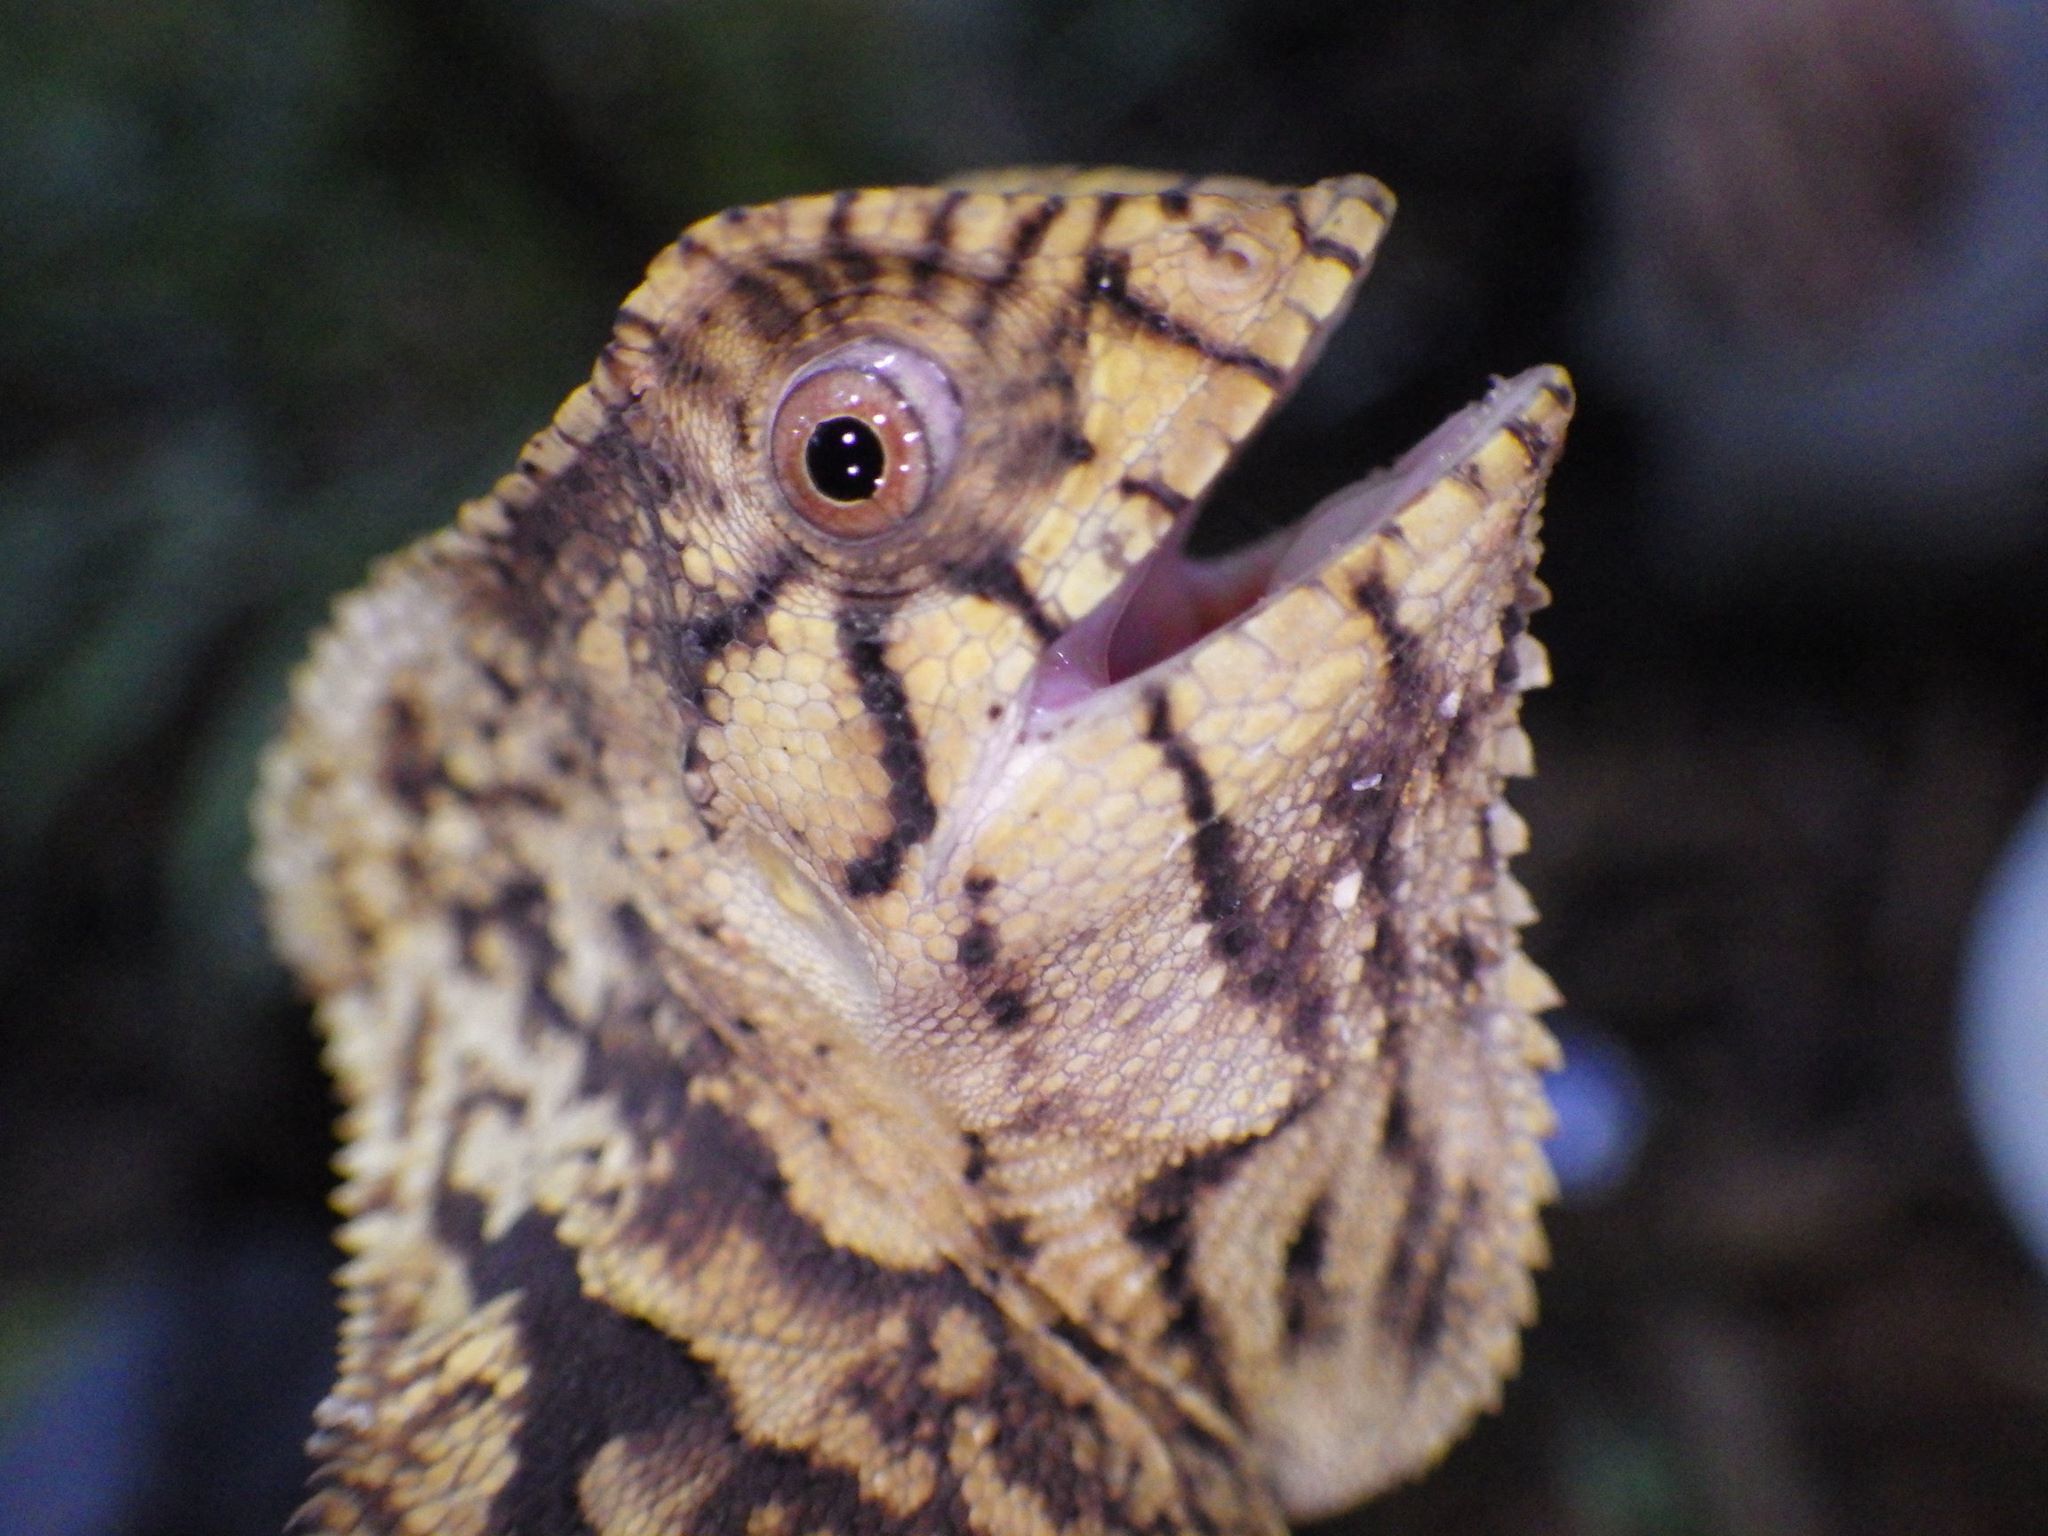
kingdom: Animalia
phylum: Chordata
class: Squamata
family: Corytophanidae
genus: Corytophanes
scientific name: Corytophanes cristatus
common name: Smooth helmeted iguana
